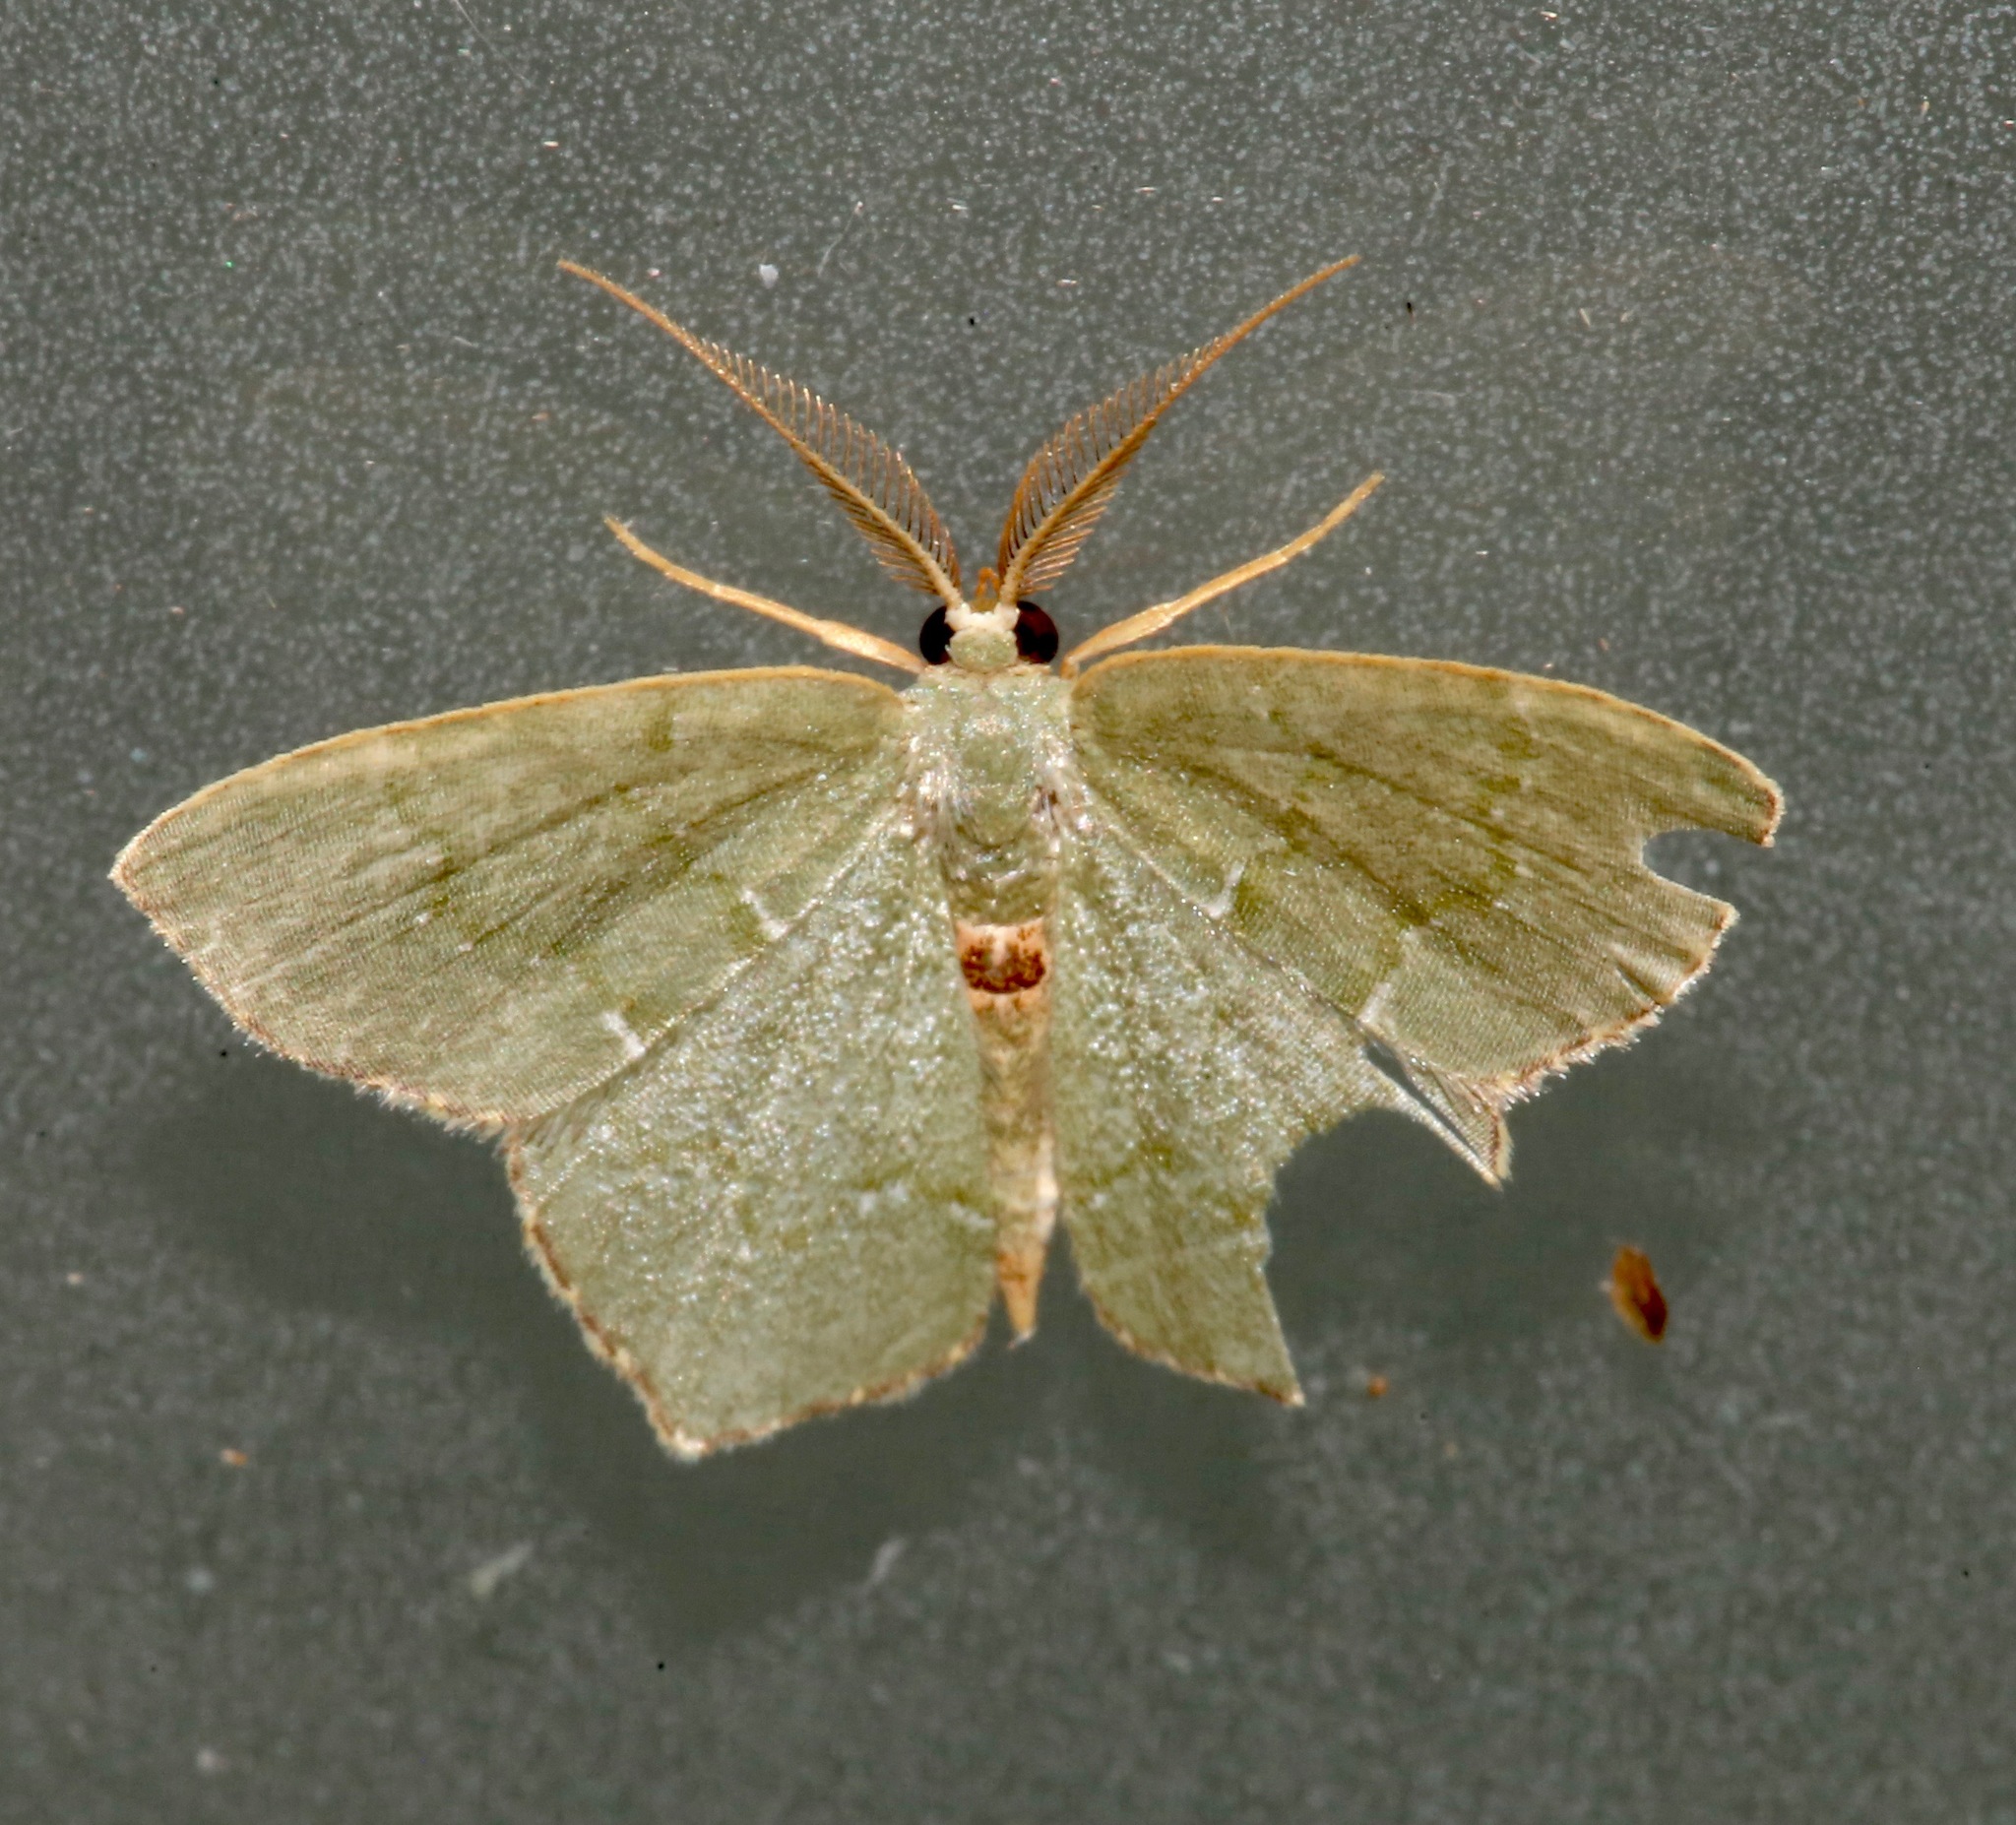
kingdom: Animalia
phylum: Arthropoda
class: Insecta
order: Lepidoptera
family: Geometridae
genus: Chloropteryx
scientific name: Chloropteryx tepperaria
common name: Angle winged emerald moth
